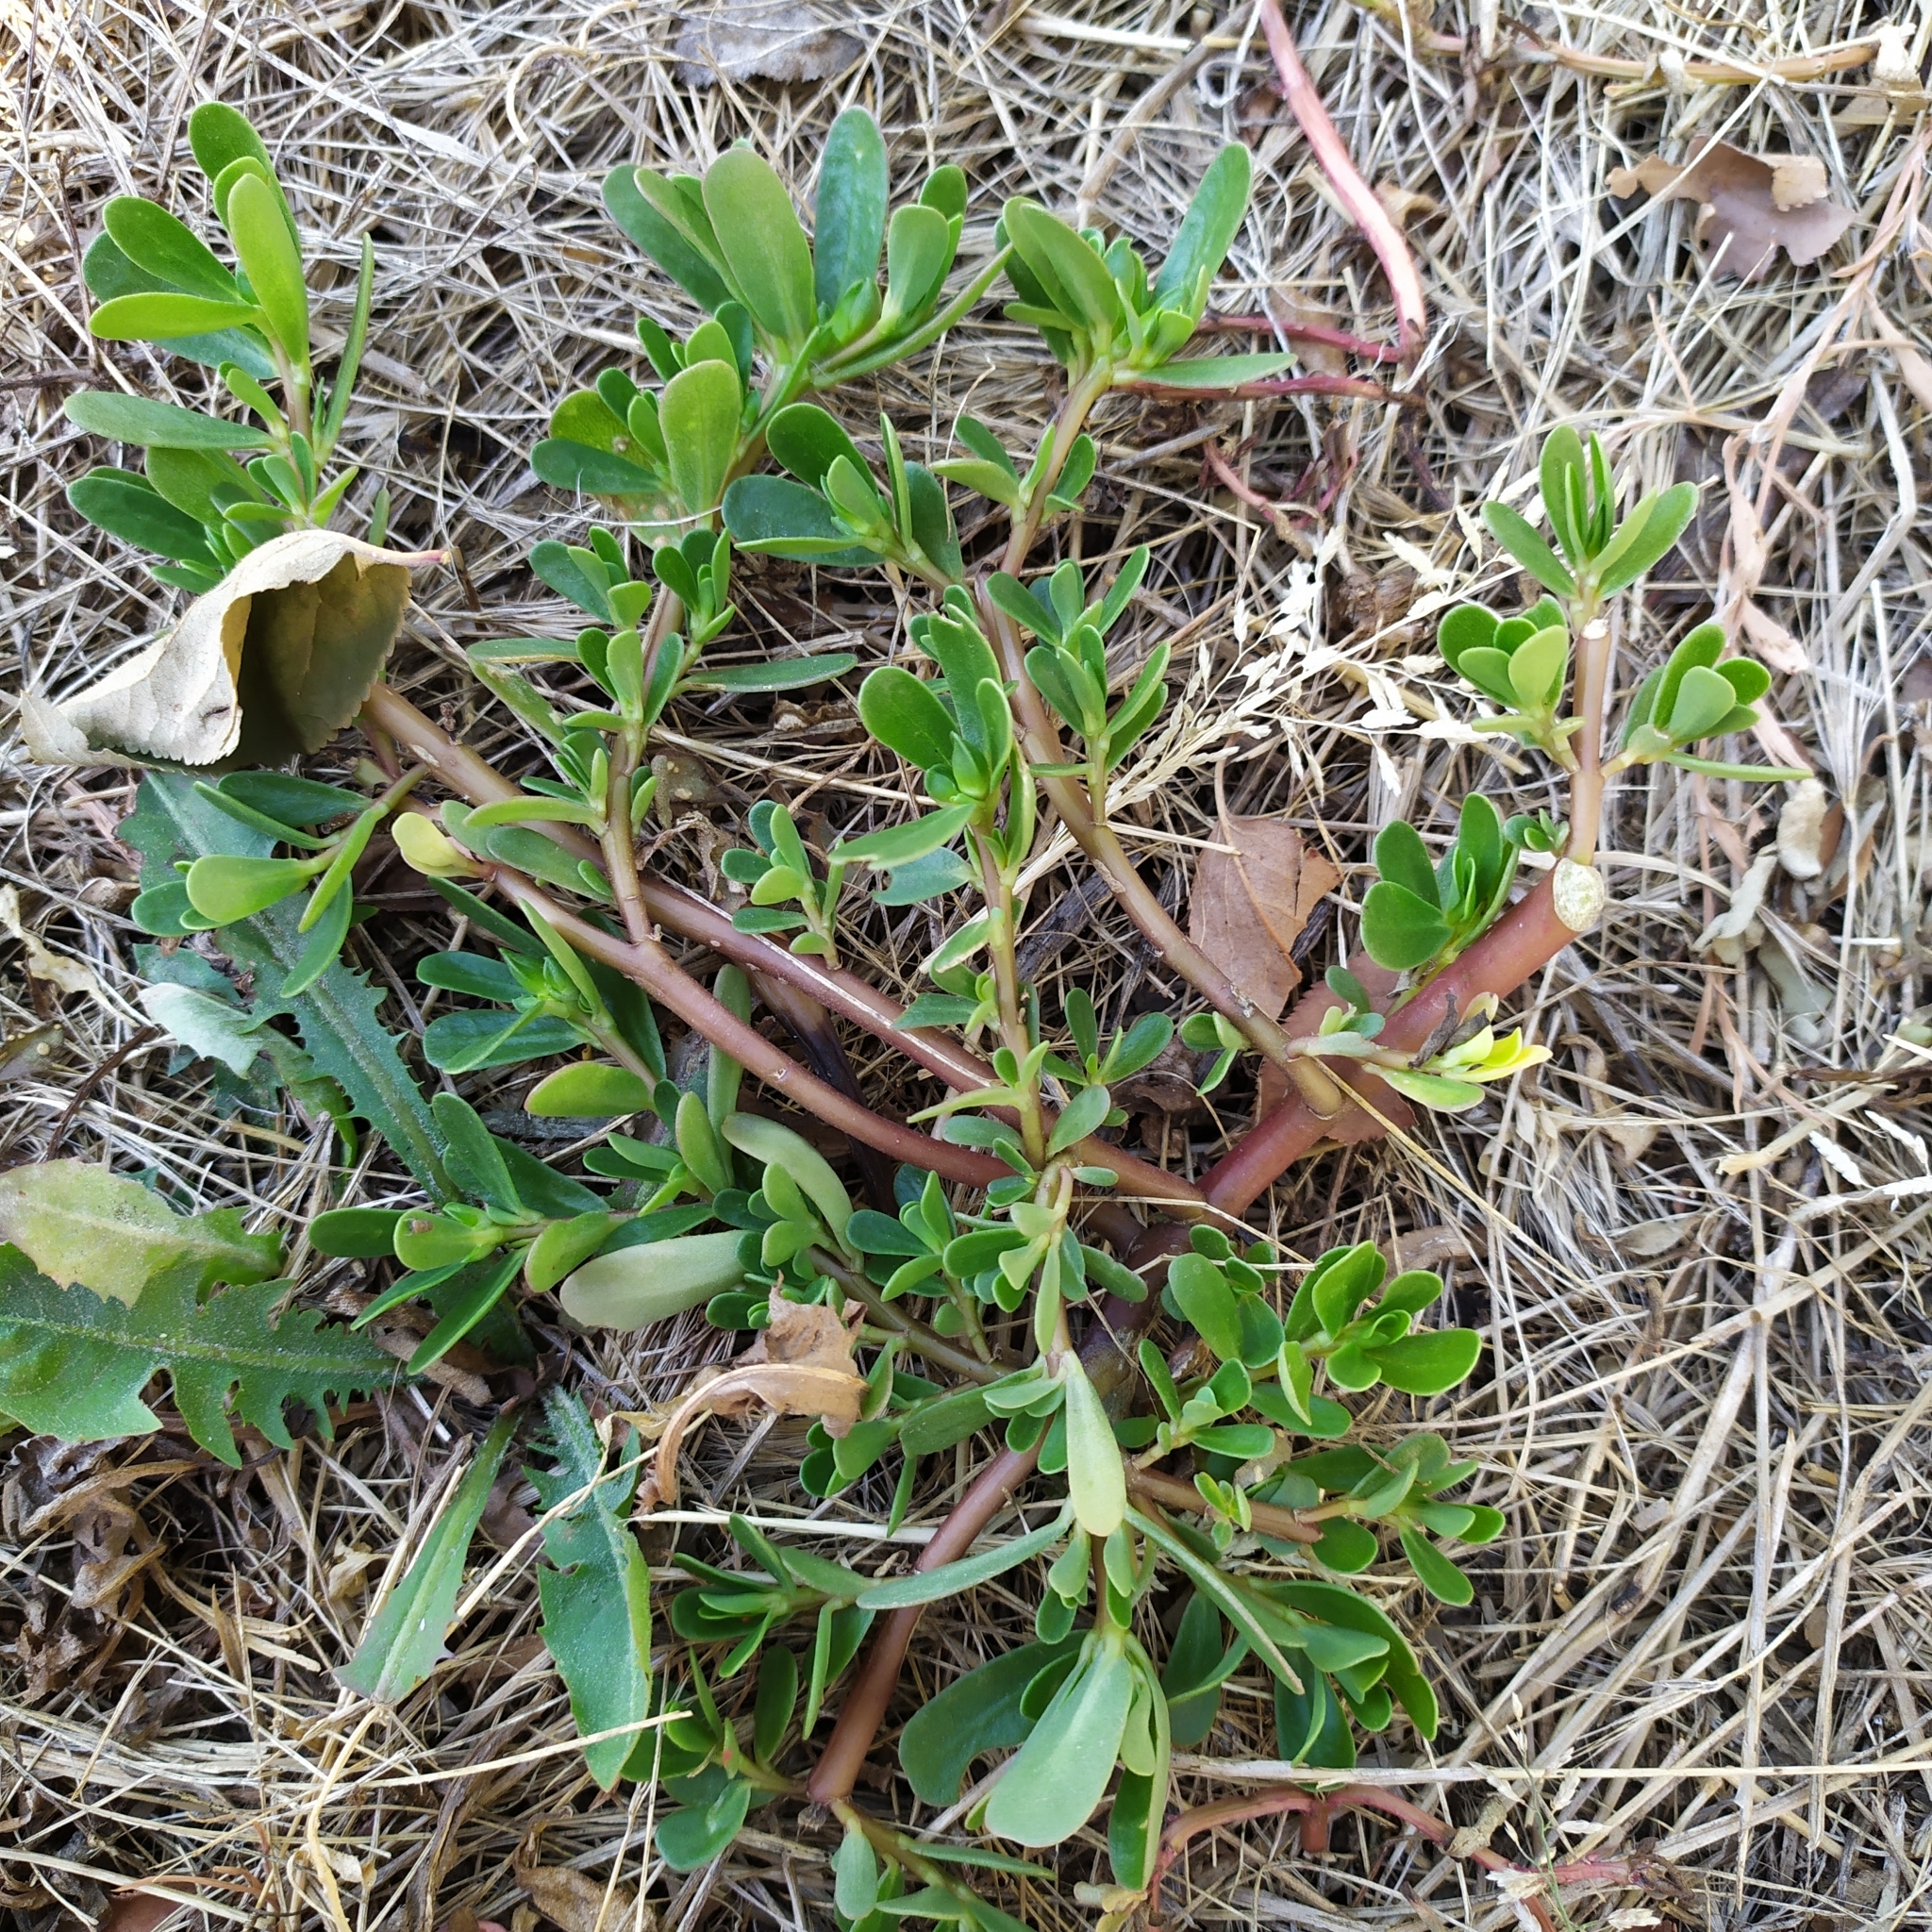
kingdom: Plantae
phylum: Tracheophyta
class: Magnoliopsida
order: Caryophyllales
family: Portulacaceae
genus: Portulaca
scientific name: Portulaca oleracea
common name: Common purslane
